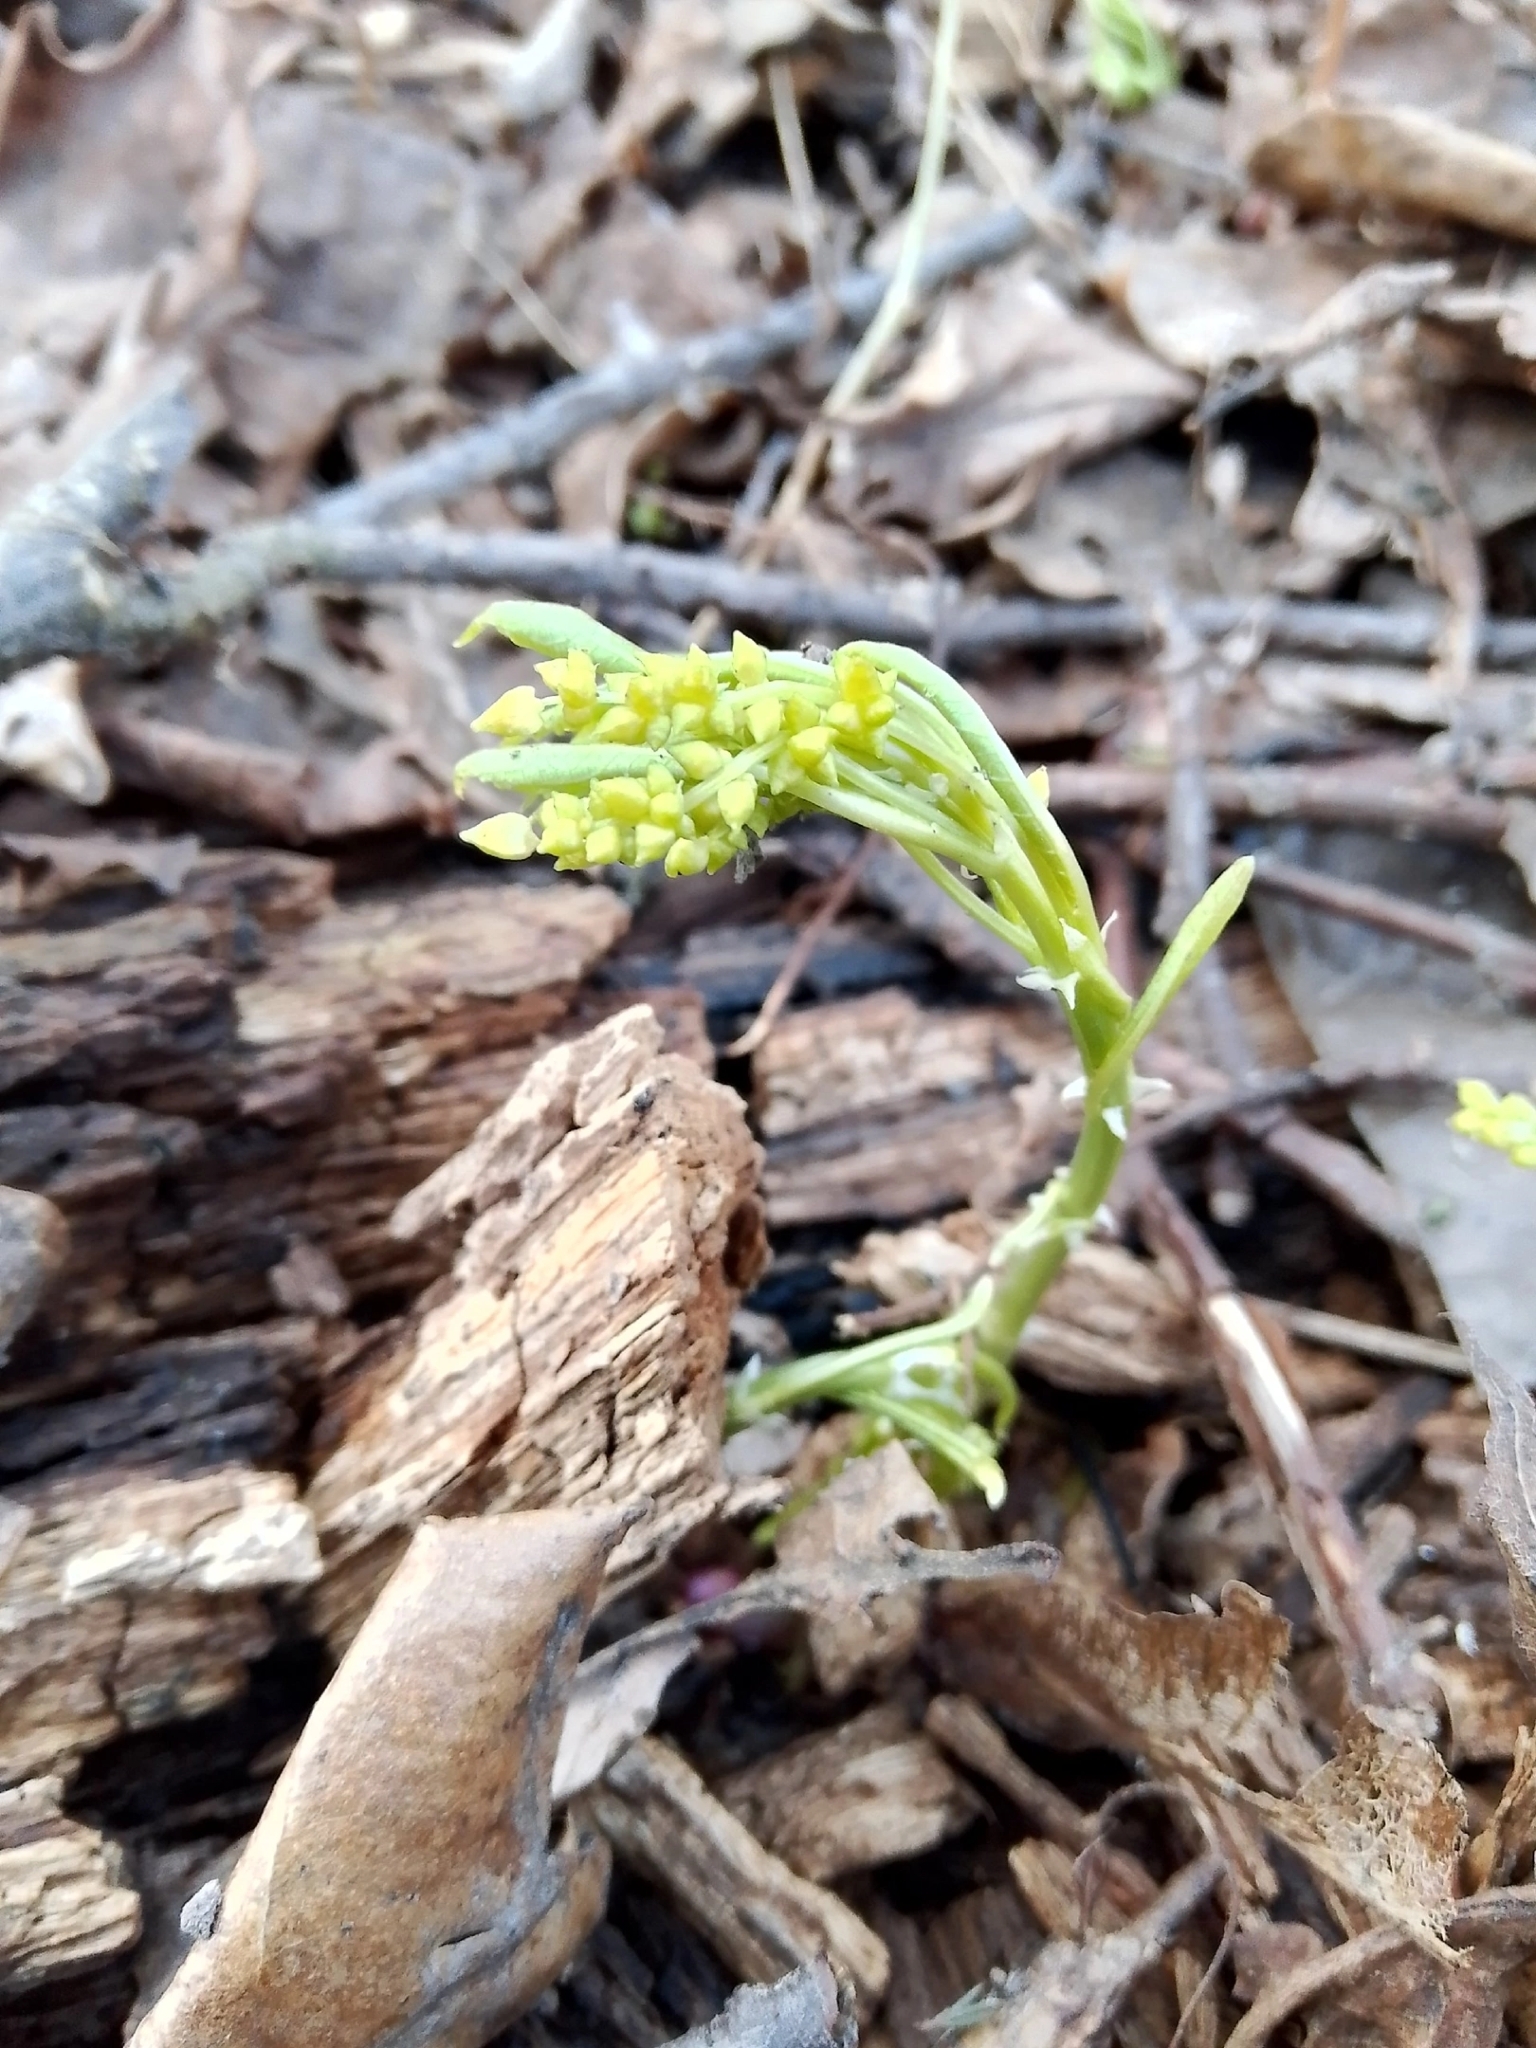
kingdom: Plantae
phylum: Tracheophyta
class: Magnoliopsida
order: Malpighiales
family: Euphorbiaceae
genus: Mercurialis
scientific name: Mercurialis perennis
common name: Dog mercury
